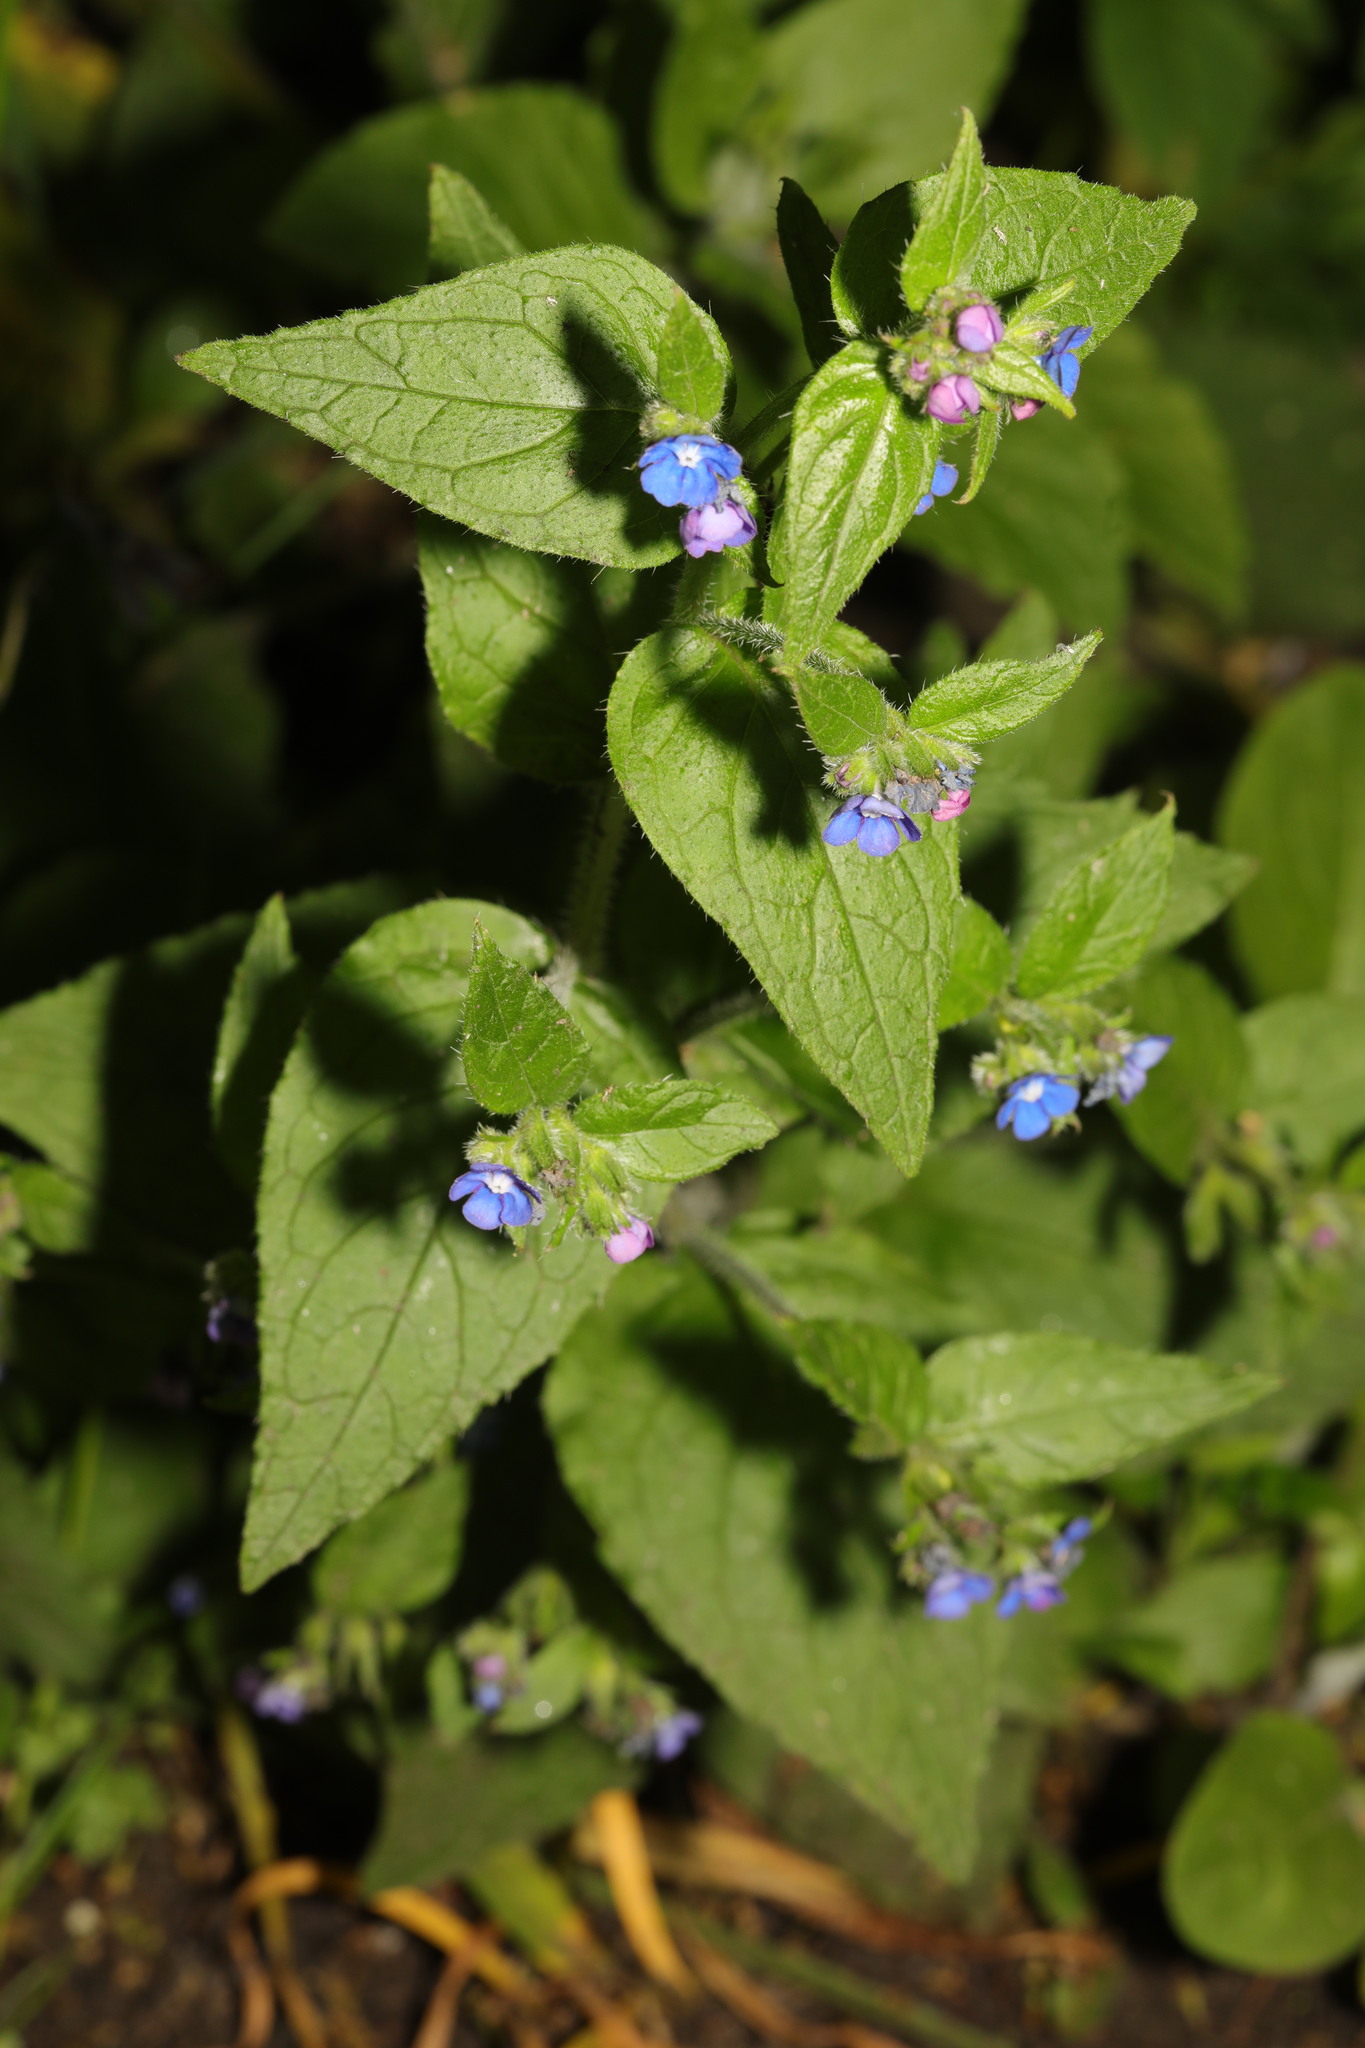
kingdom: Plantae
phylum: Tracheophyta
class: Magnoliopsida
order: Boraginales
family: Boraginaceae
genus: Pentaglottis
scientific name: Pentaglottis sempervirens
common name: Green alkanet
